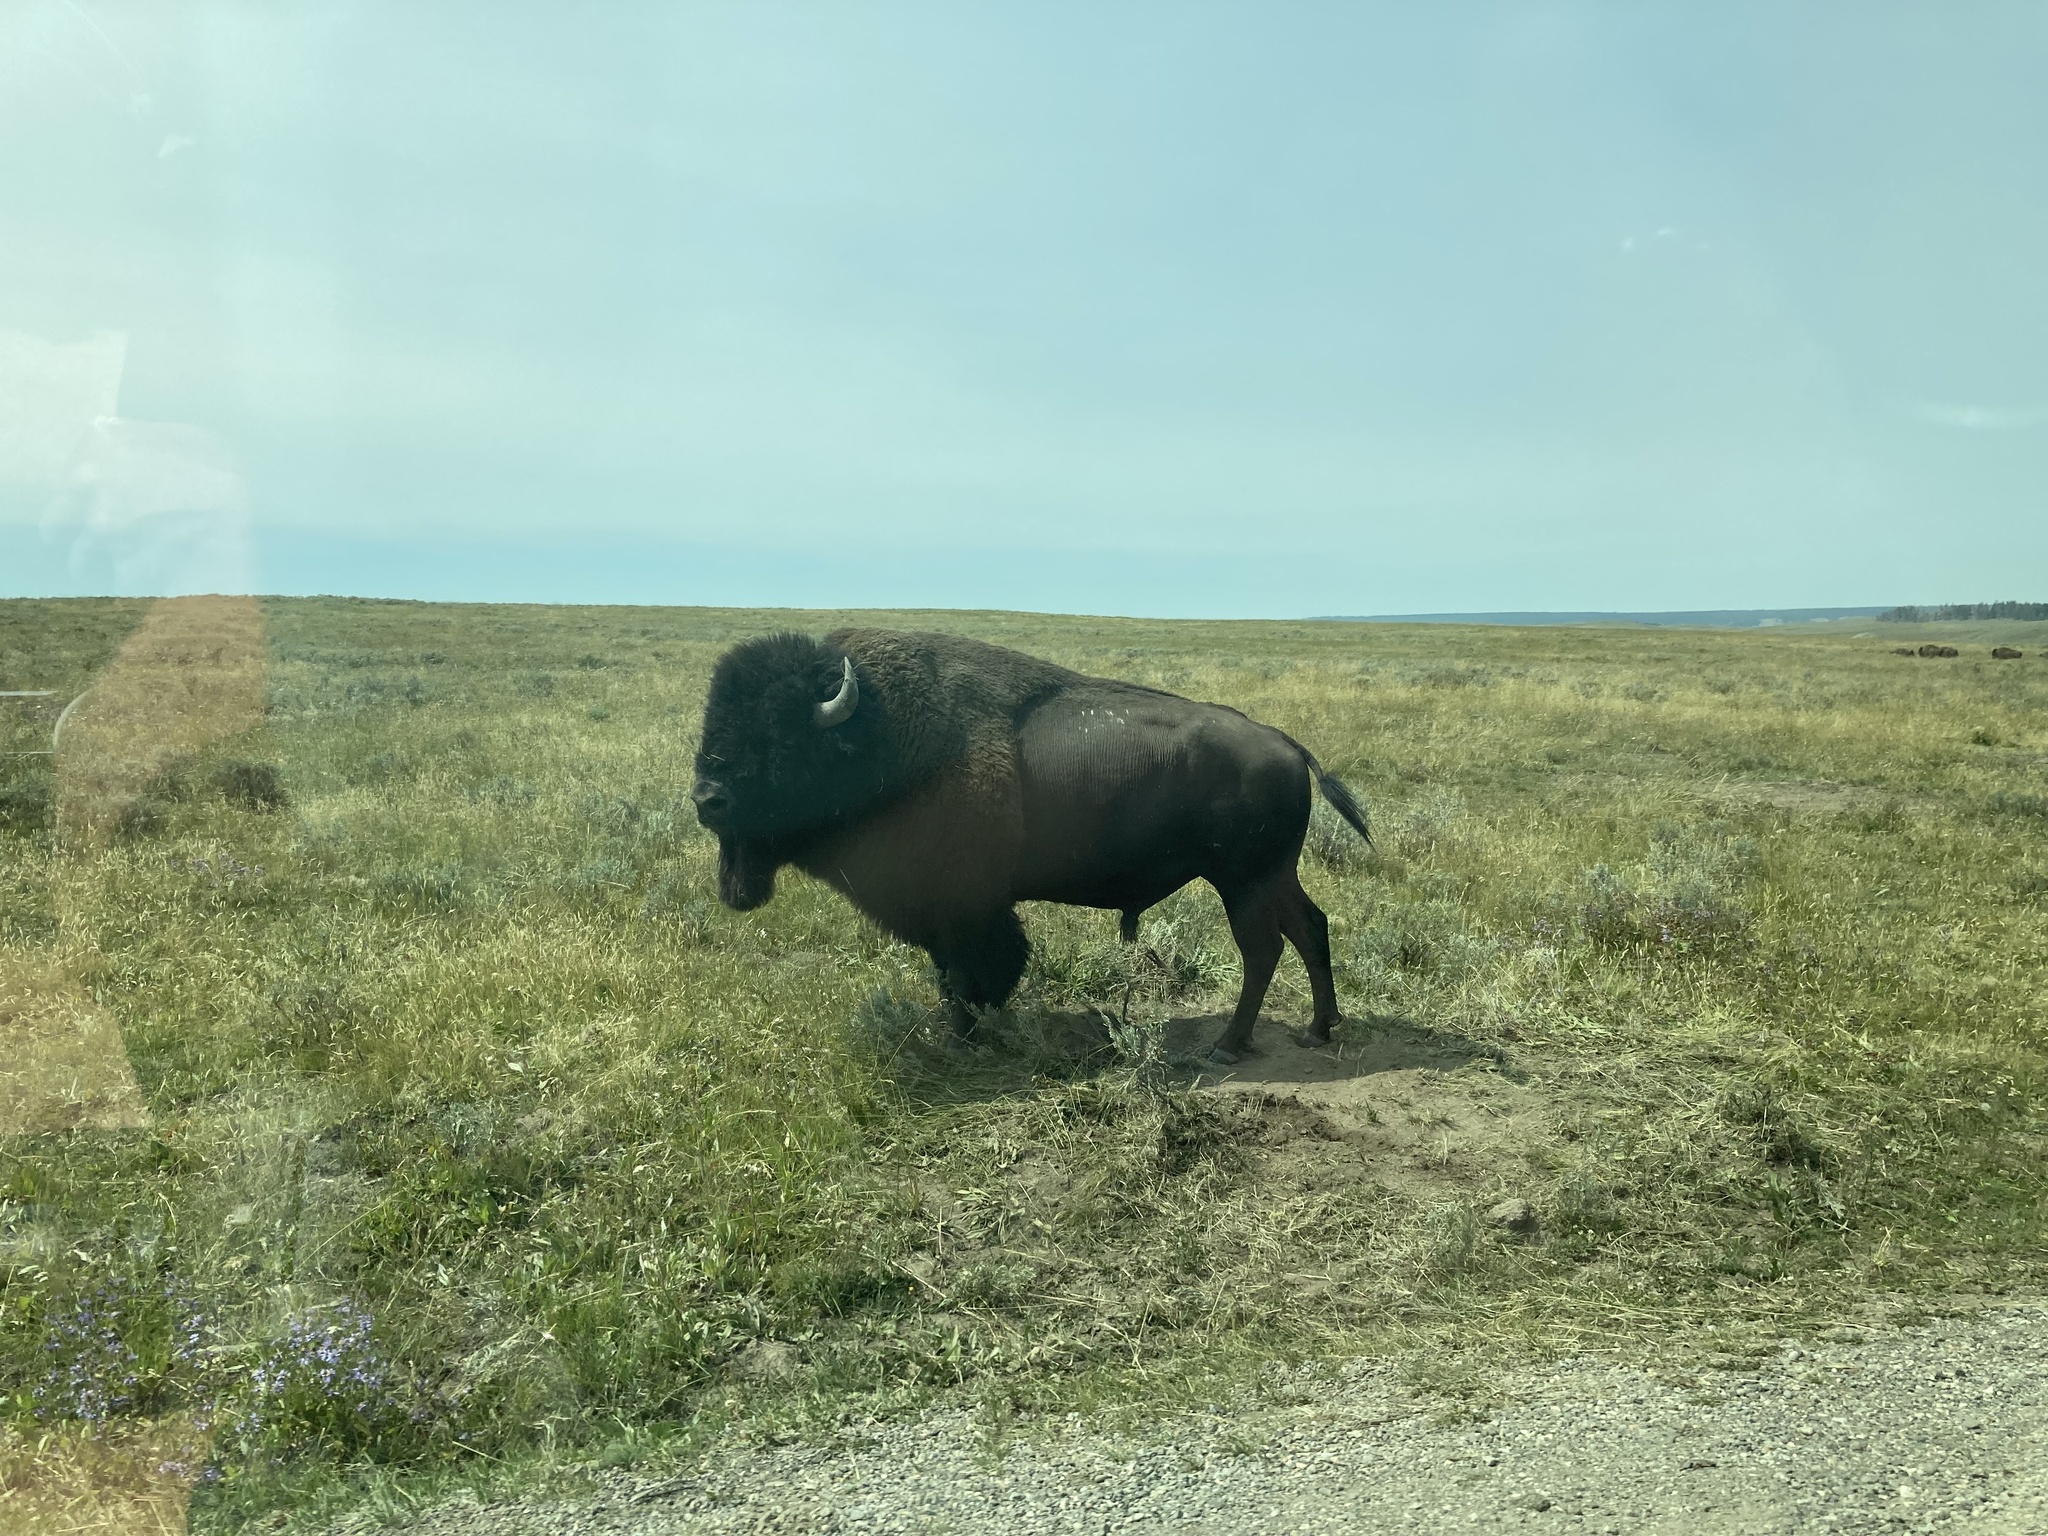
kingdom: Animalia
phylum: Chordata
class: Mammalia
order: Artiodactyla
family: Bovidae
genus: Bison
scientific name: Bison bison
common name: American bison
